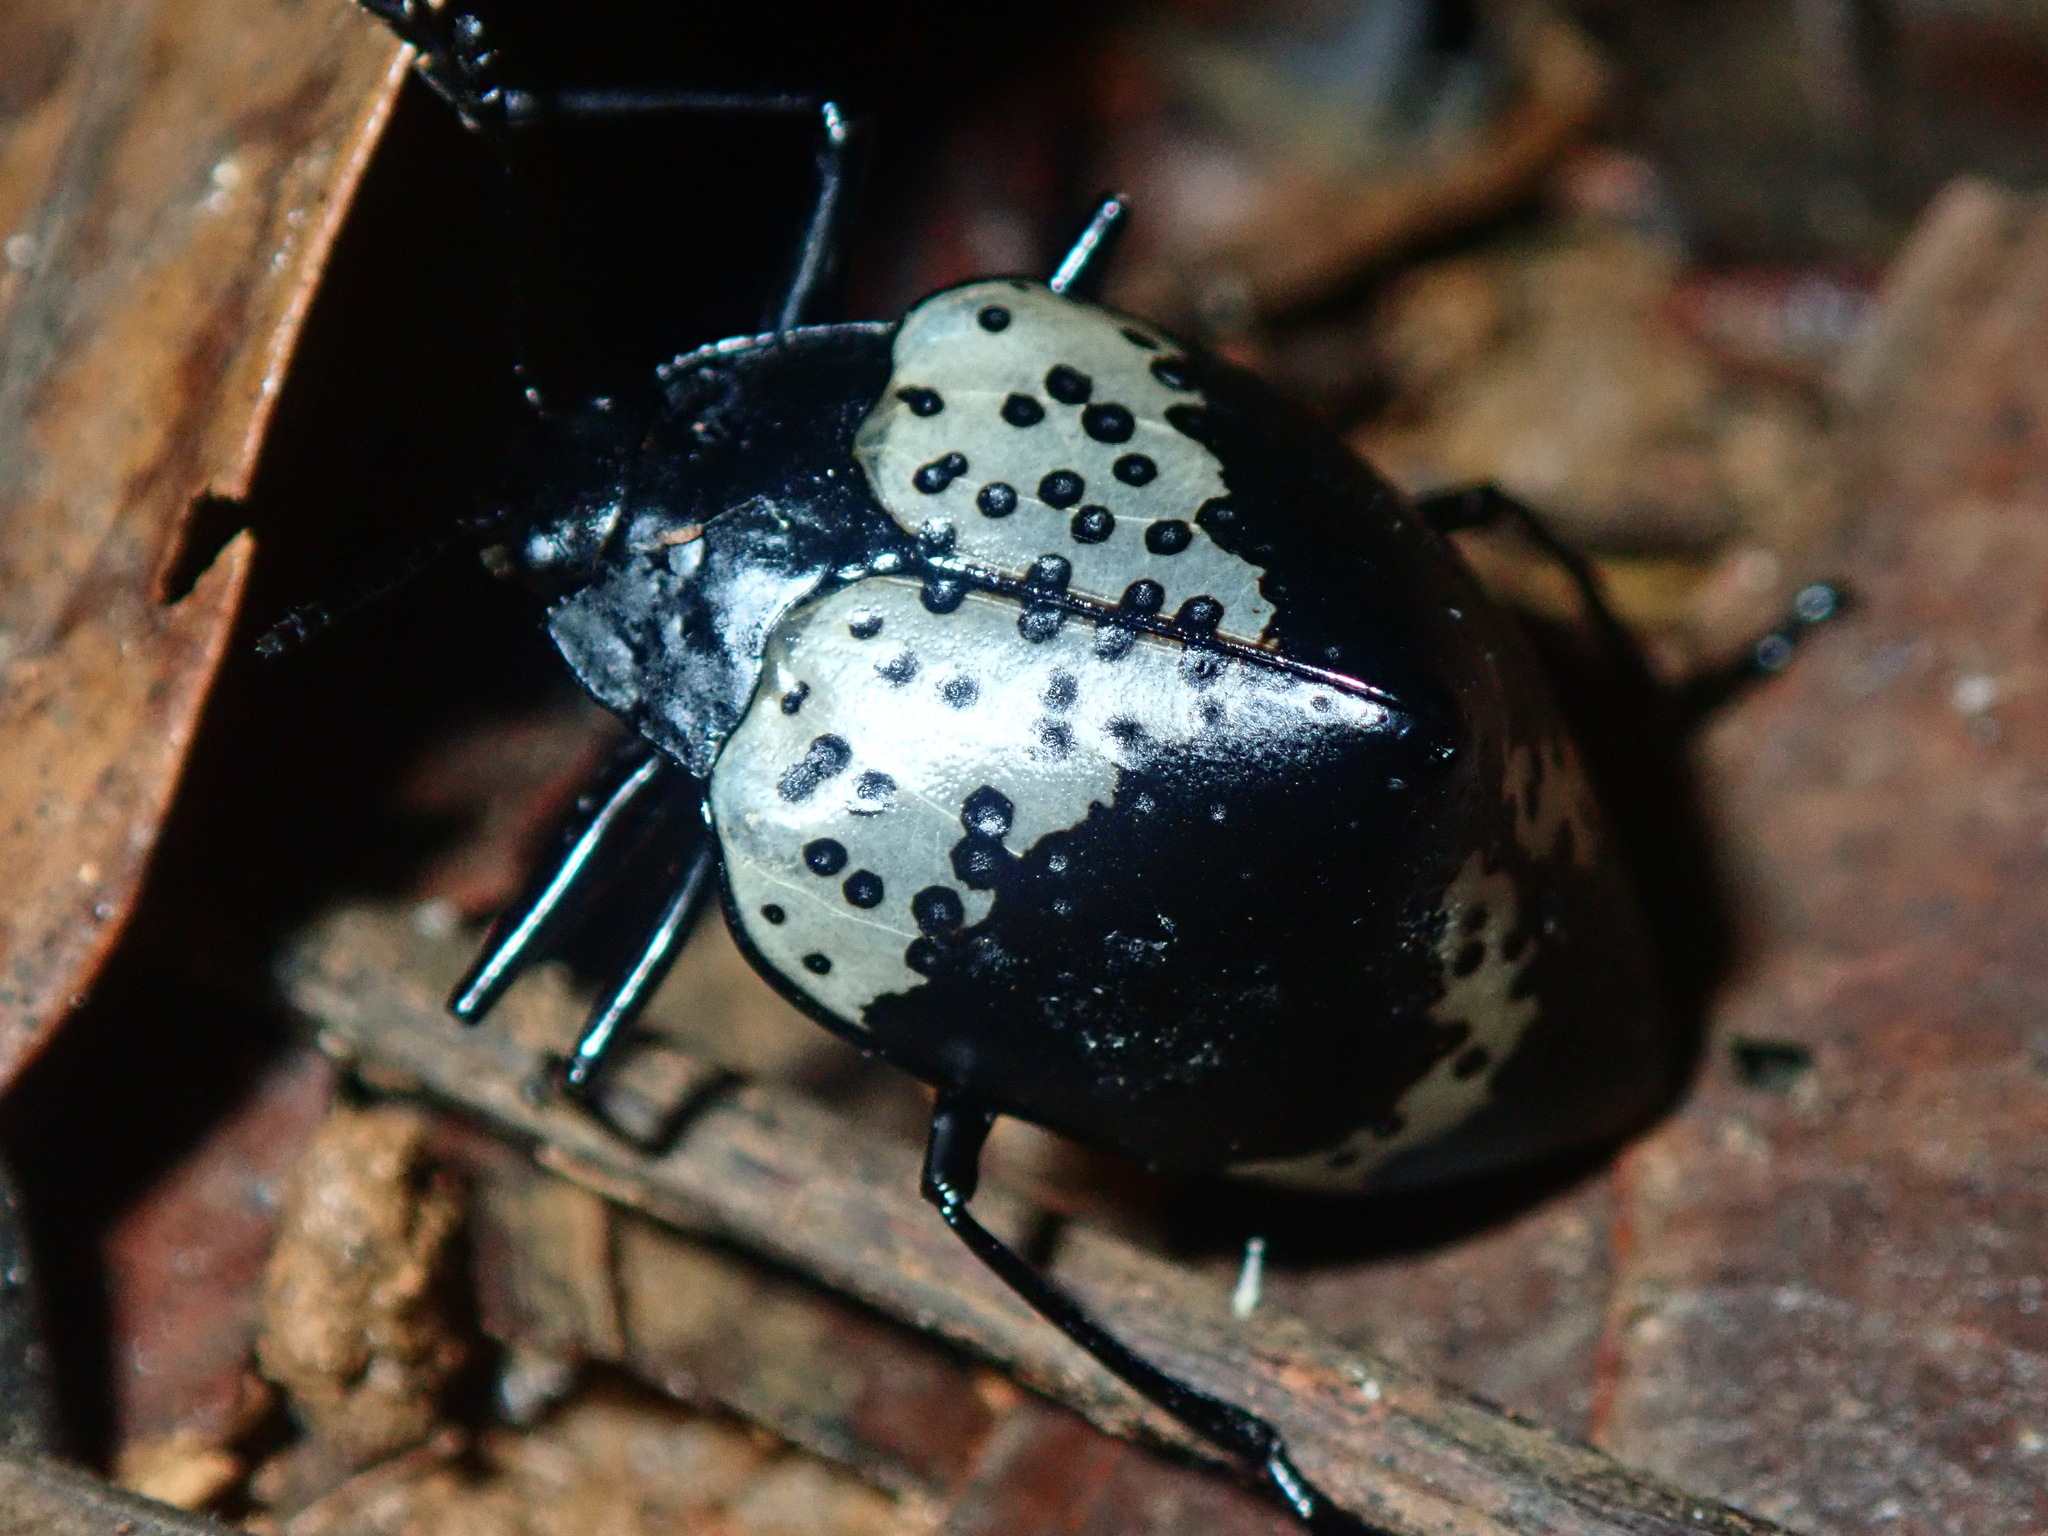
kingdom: Animalia
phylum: Arthropoda
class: Insecta
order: Coleoptera
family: Erotylidae
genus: Gibbifer
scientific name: Gibbifer
